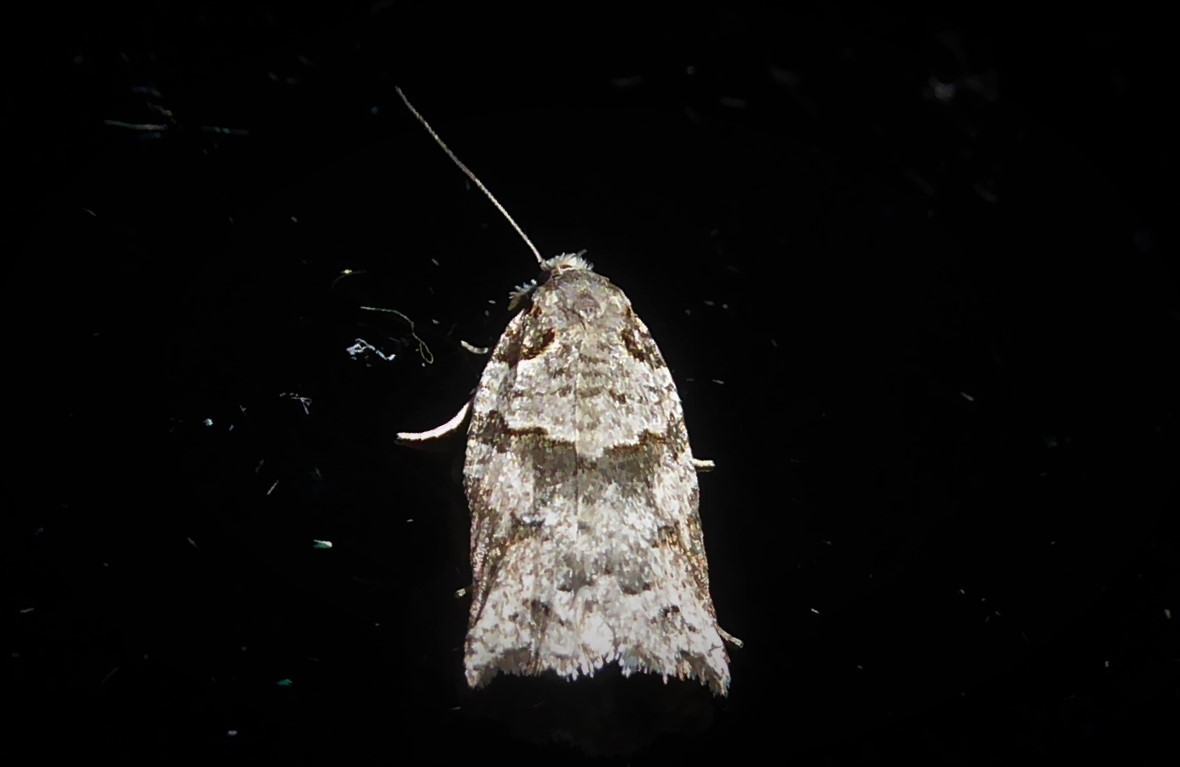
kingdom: Animalia
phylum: Arthropoda
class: Insecta
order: Lepidoptera
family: Tortricidae
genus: Harmologa
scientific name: Harmologa amplexana
